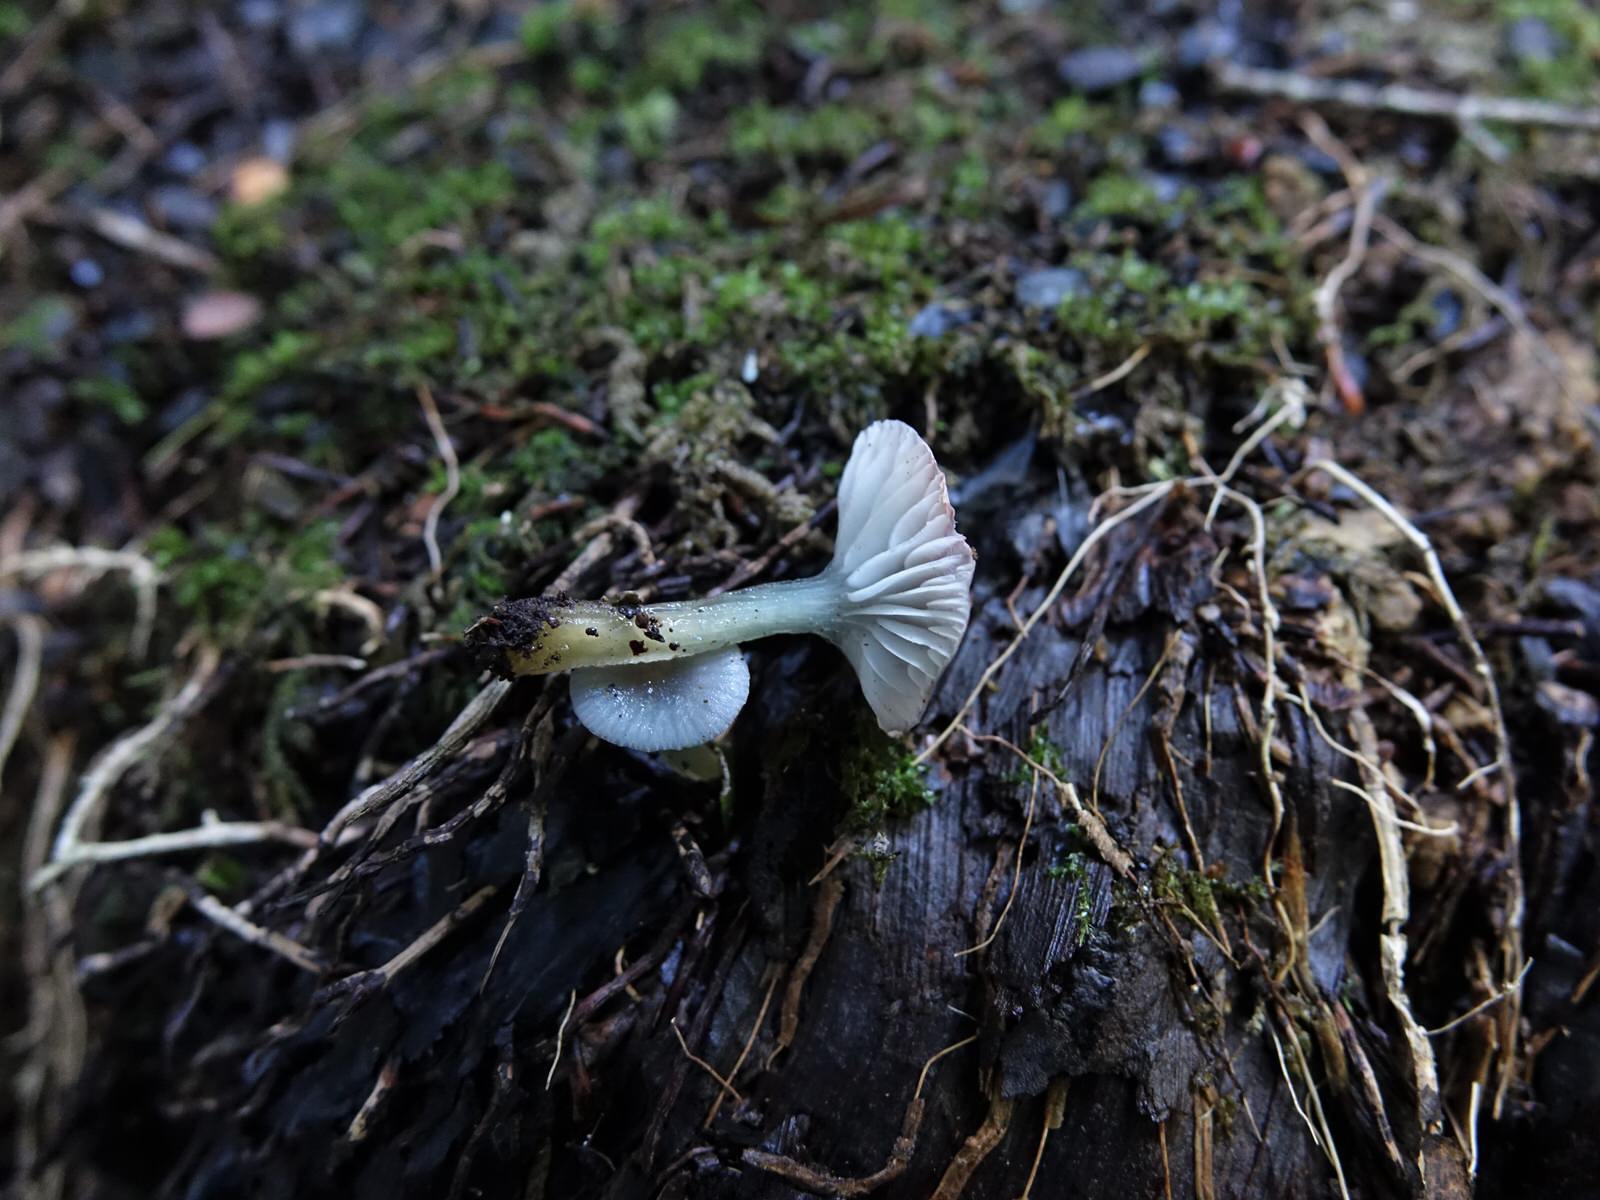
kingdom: Fungi
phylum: Basidiomycota
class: Agaricomycetes
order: Agaricales
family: Hygrophoraceae
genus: Gliophorus
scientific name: Gliophorus lilacipes
